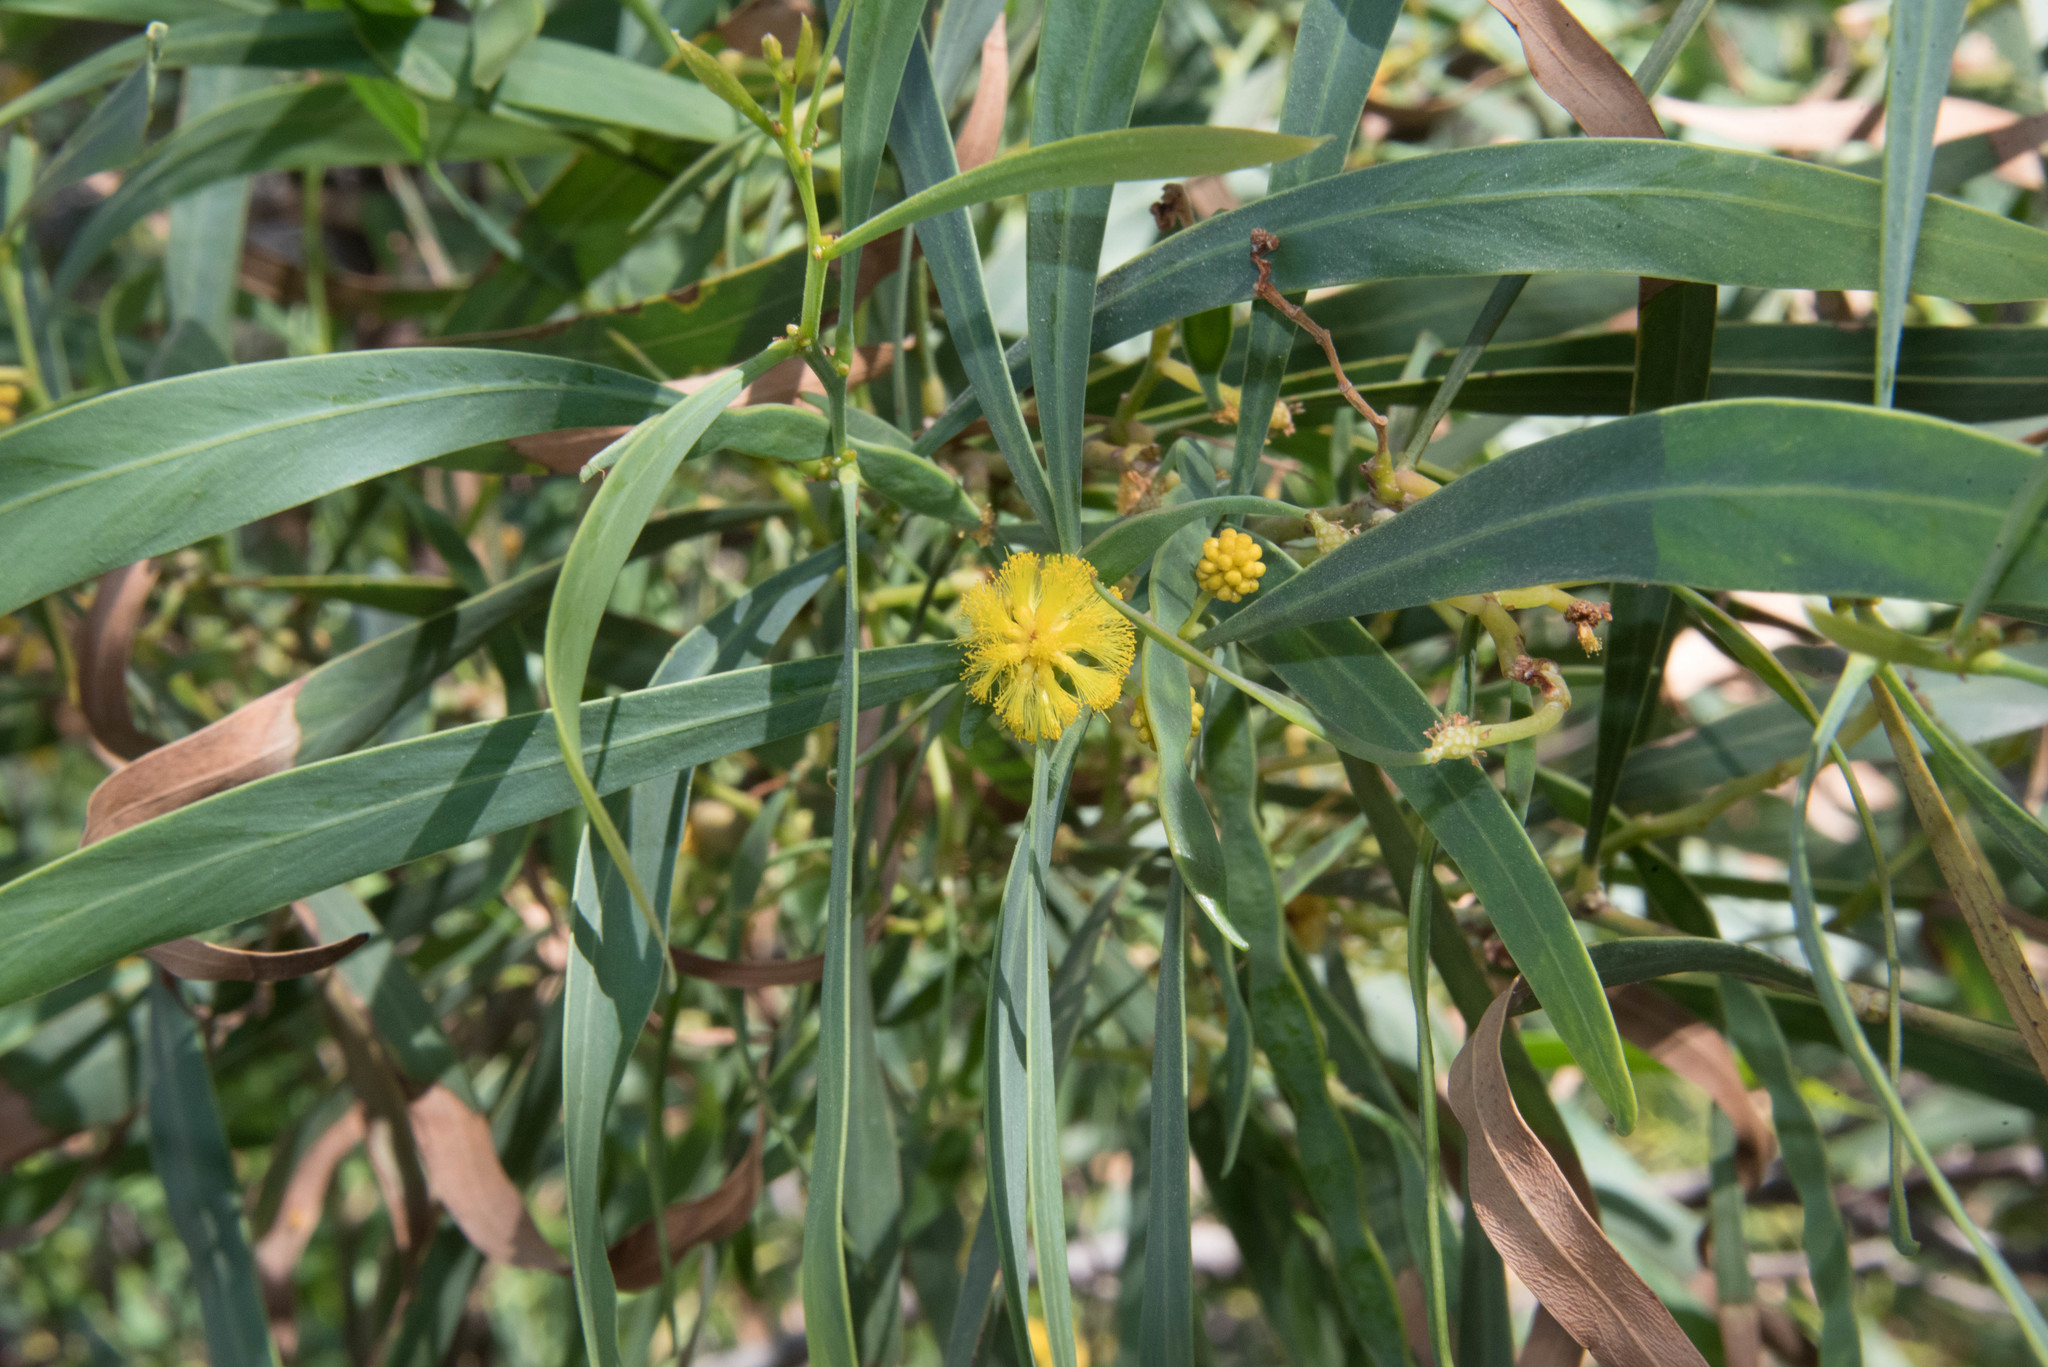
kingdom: Plantae
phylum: Tracheophyta
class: Magnoliopsida
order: Fabales
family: Fabaceae
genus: Acacia
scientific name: Acacia saligna
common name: Orange wattle
